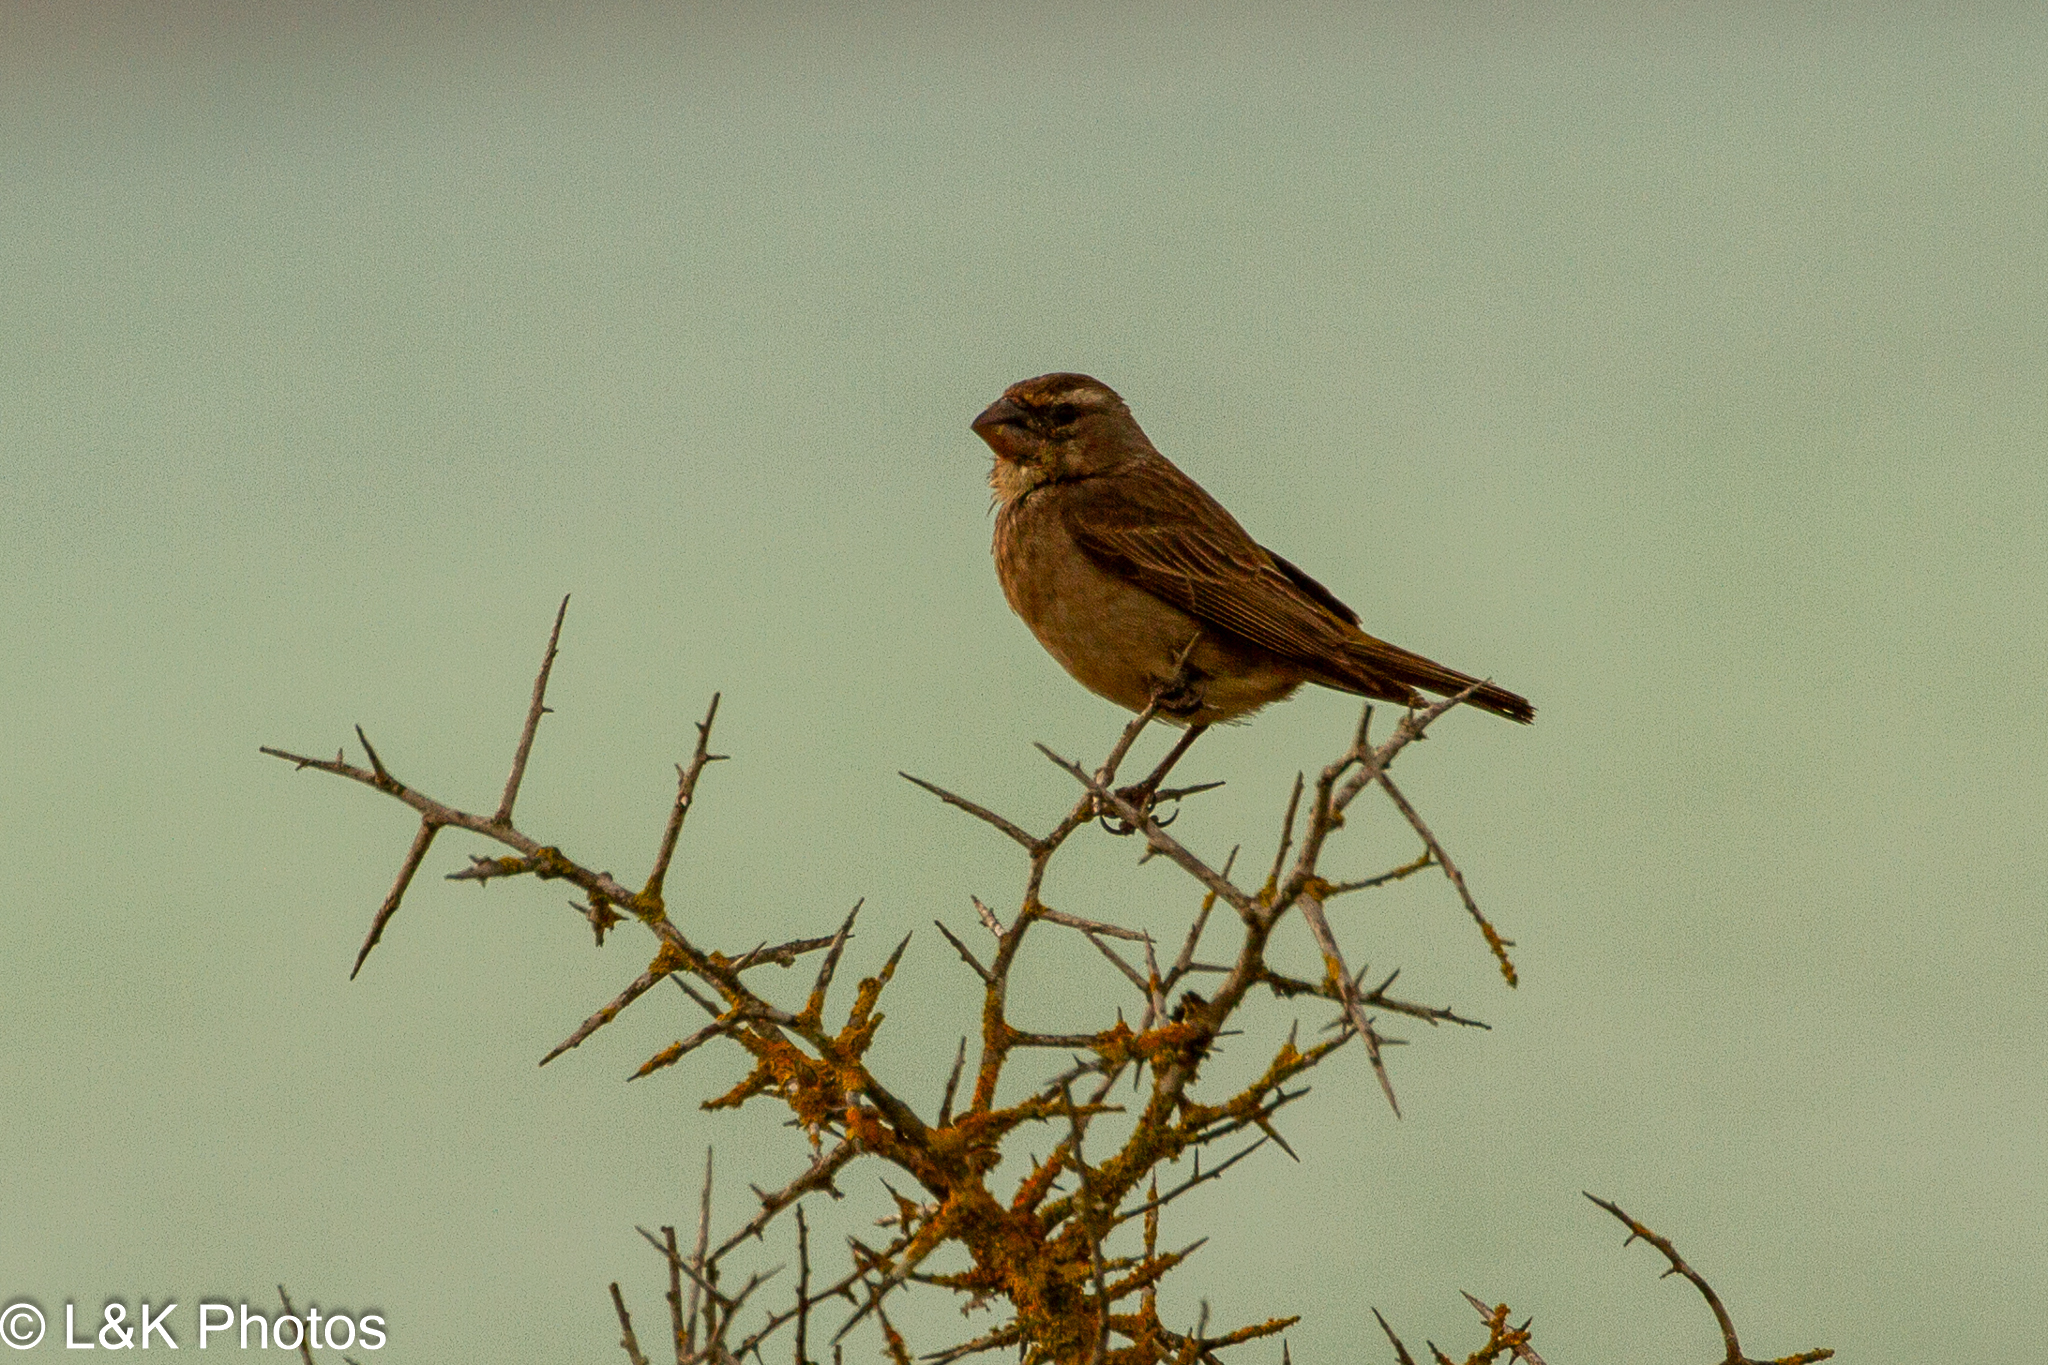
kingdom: Animalia
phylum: Chordata
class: Aves
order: Passeriformes
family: Fringillidae
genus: Crithagra
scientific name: Crithagra albogularis
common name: White-throated canary
